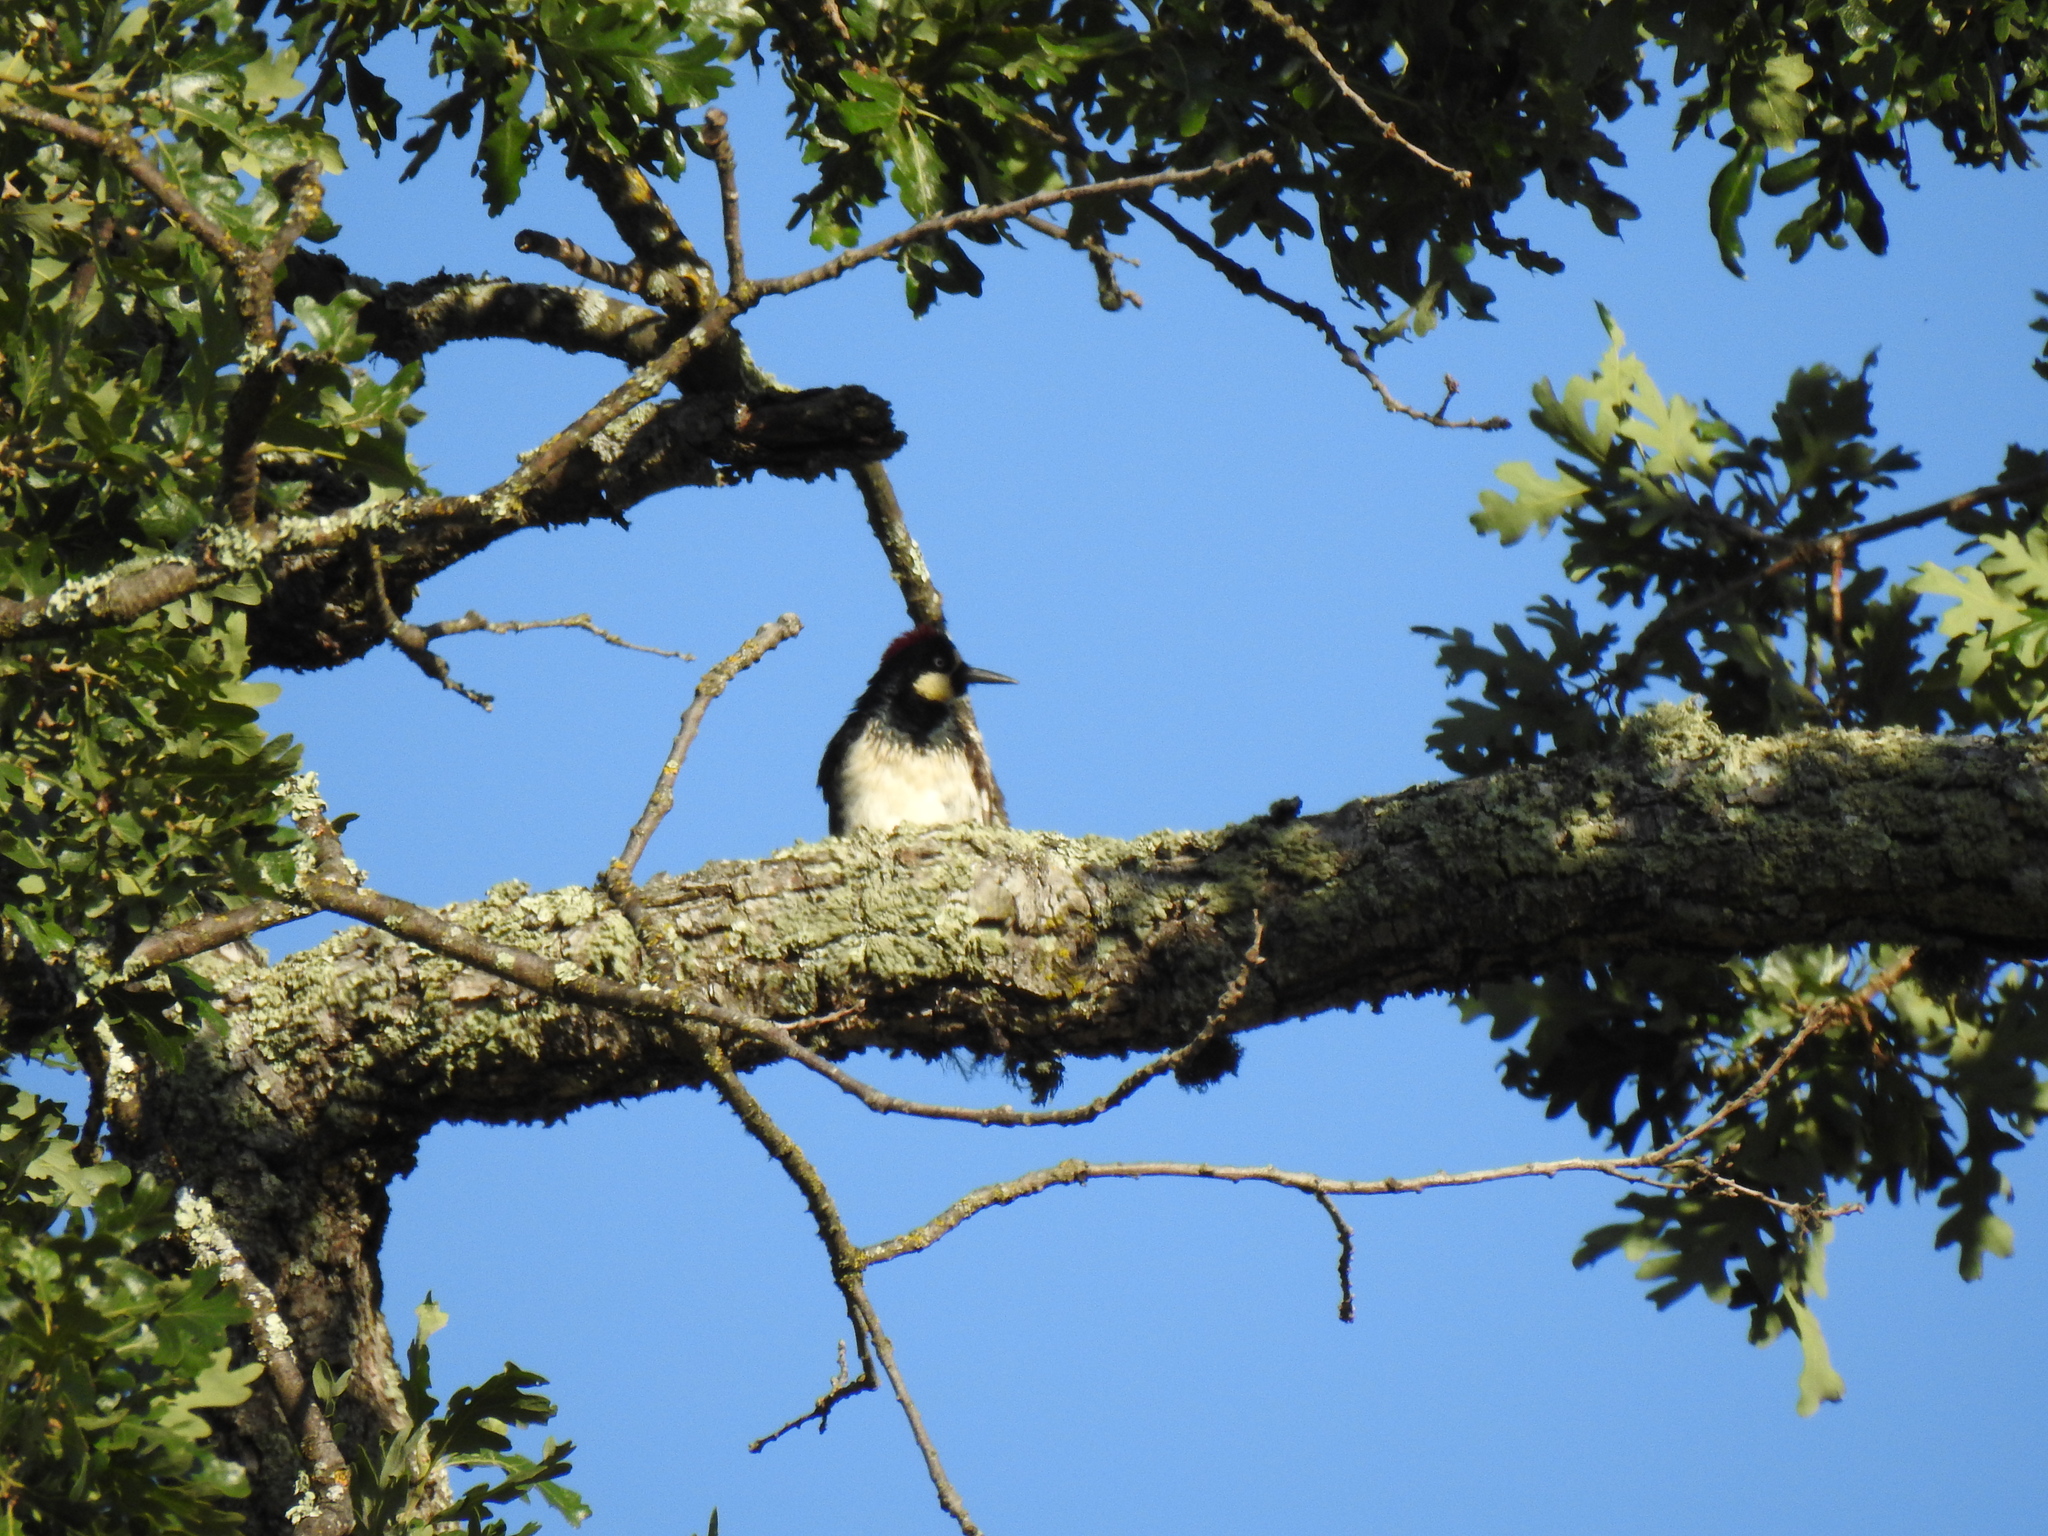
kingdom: Animalia
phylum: Chordata
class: Aves
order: Piciformes
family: Picidae
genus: Melanerpes
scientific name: Melanerpes formicivorus
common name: Acorn woodpecker
